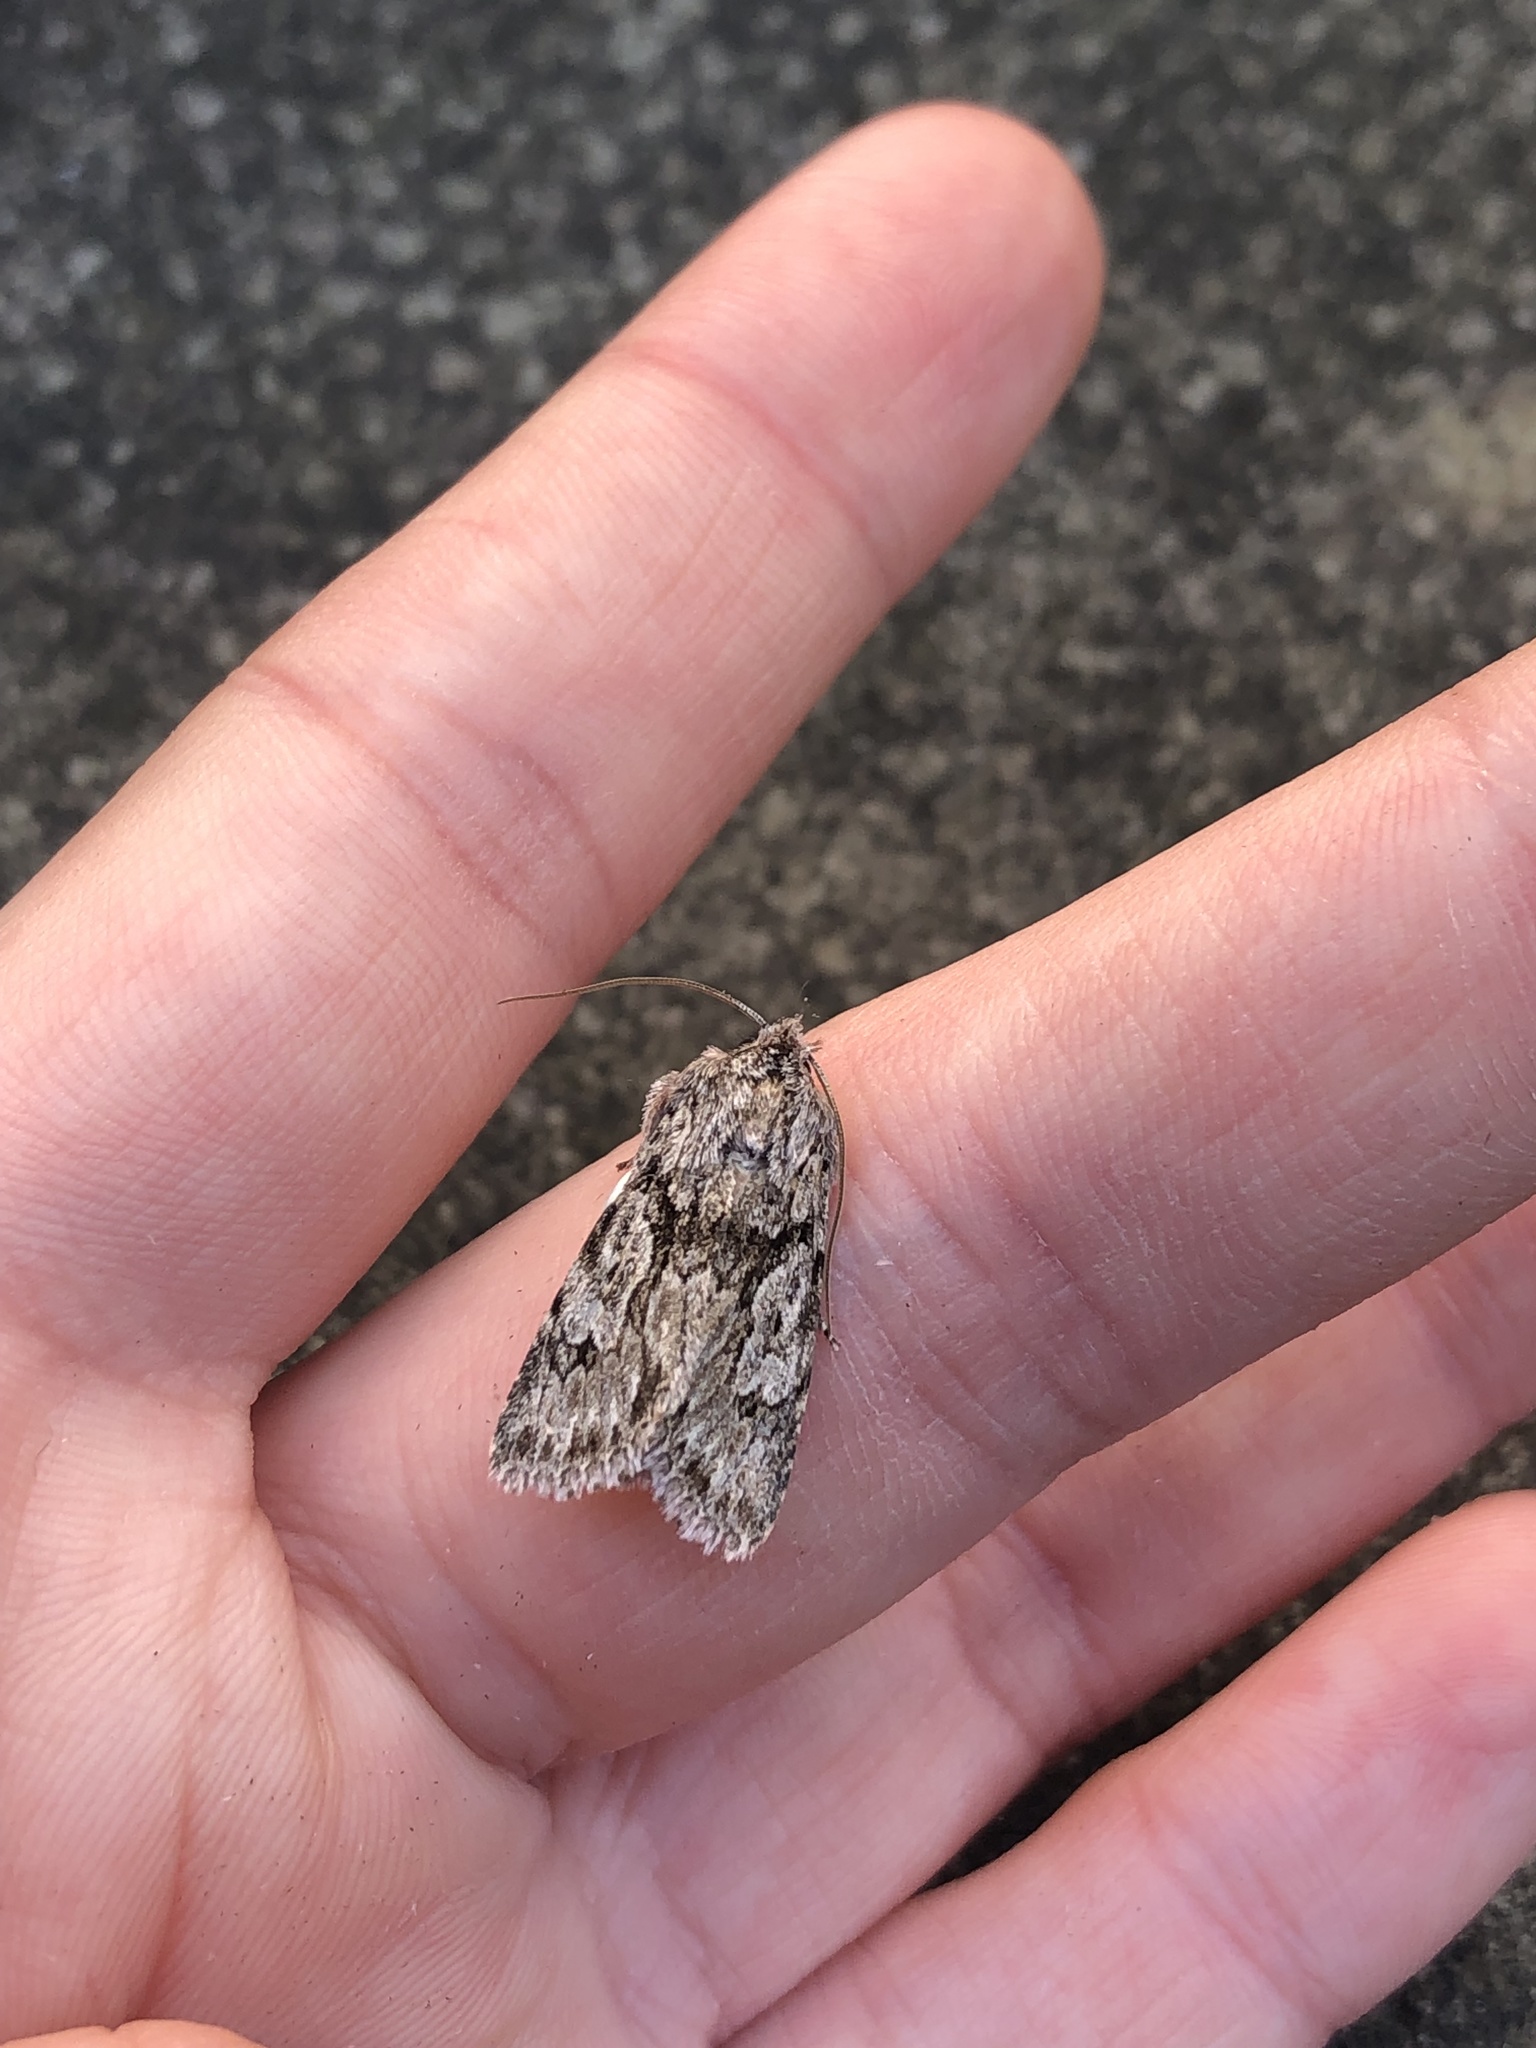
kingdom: Animalia
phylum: Arthropoda
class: Insecta
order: Lepidoptera
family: Noctuidae
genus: Xylocampa
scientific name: Xylocampa areola
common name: Early grey
